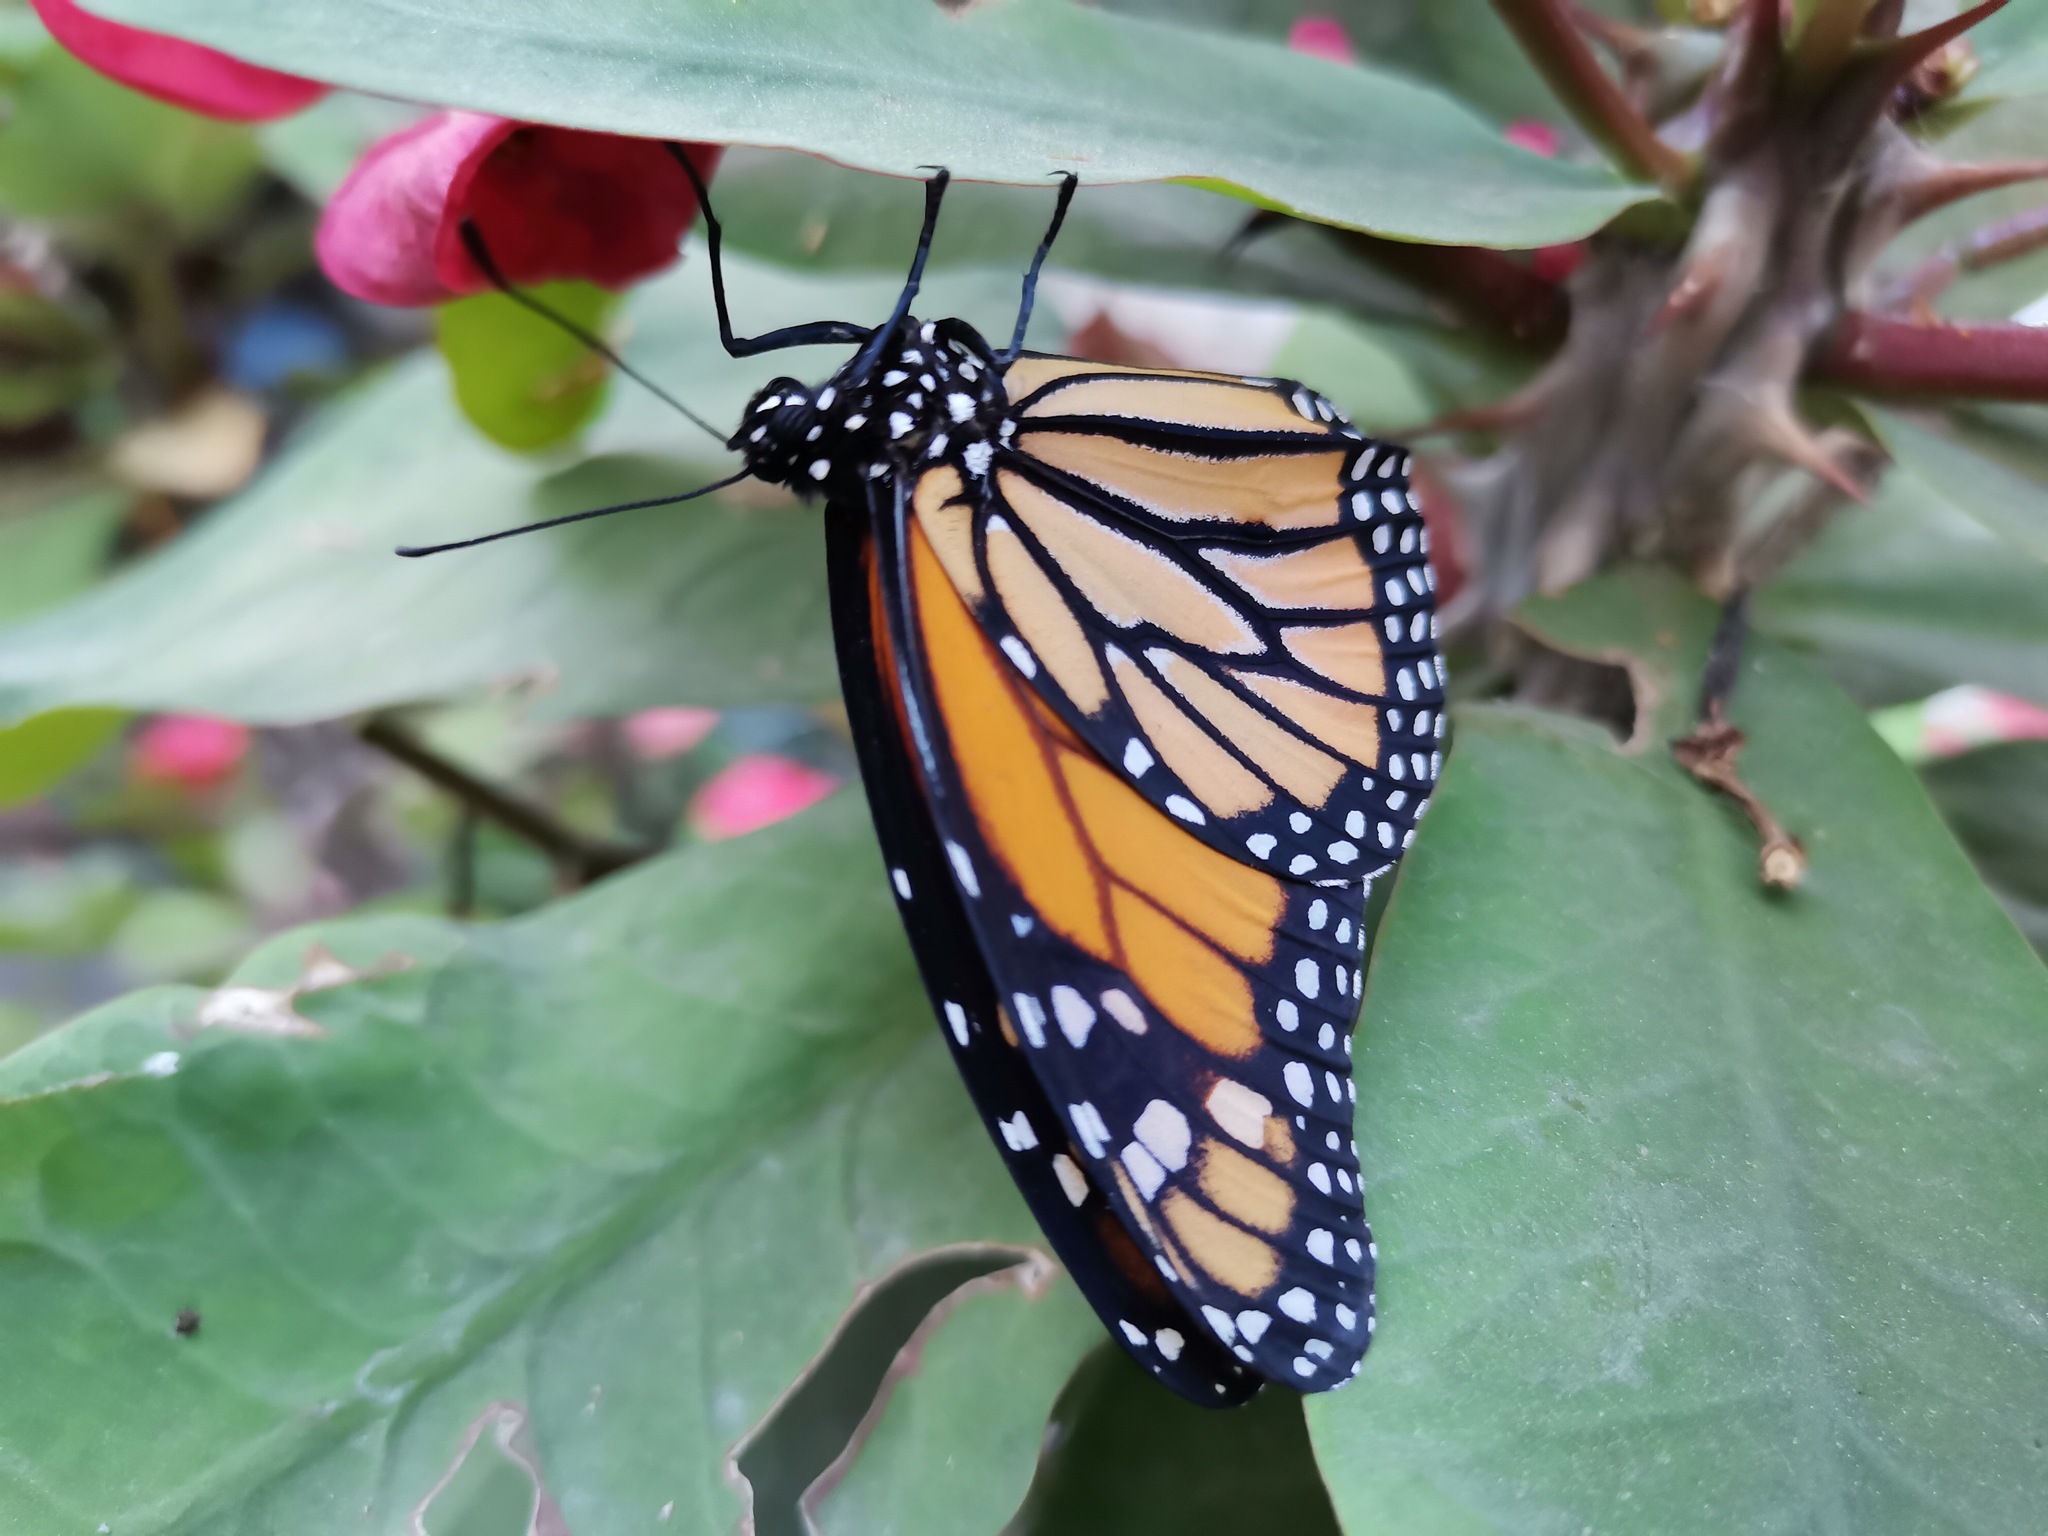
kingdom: Animalia
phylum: Arthropoda
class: Insecta
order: Lepidoptera
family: Nymphalidae
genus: Danaus
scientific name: Danaus plexippus
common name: Monarch
